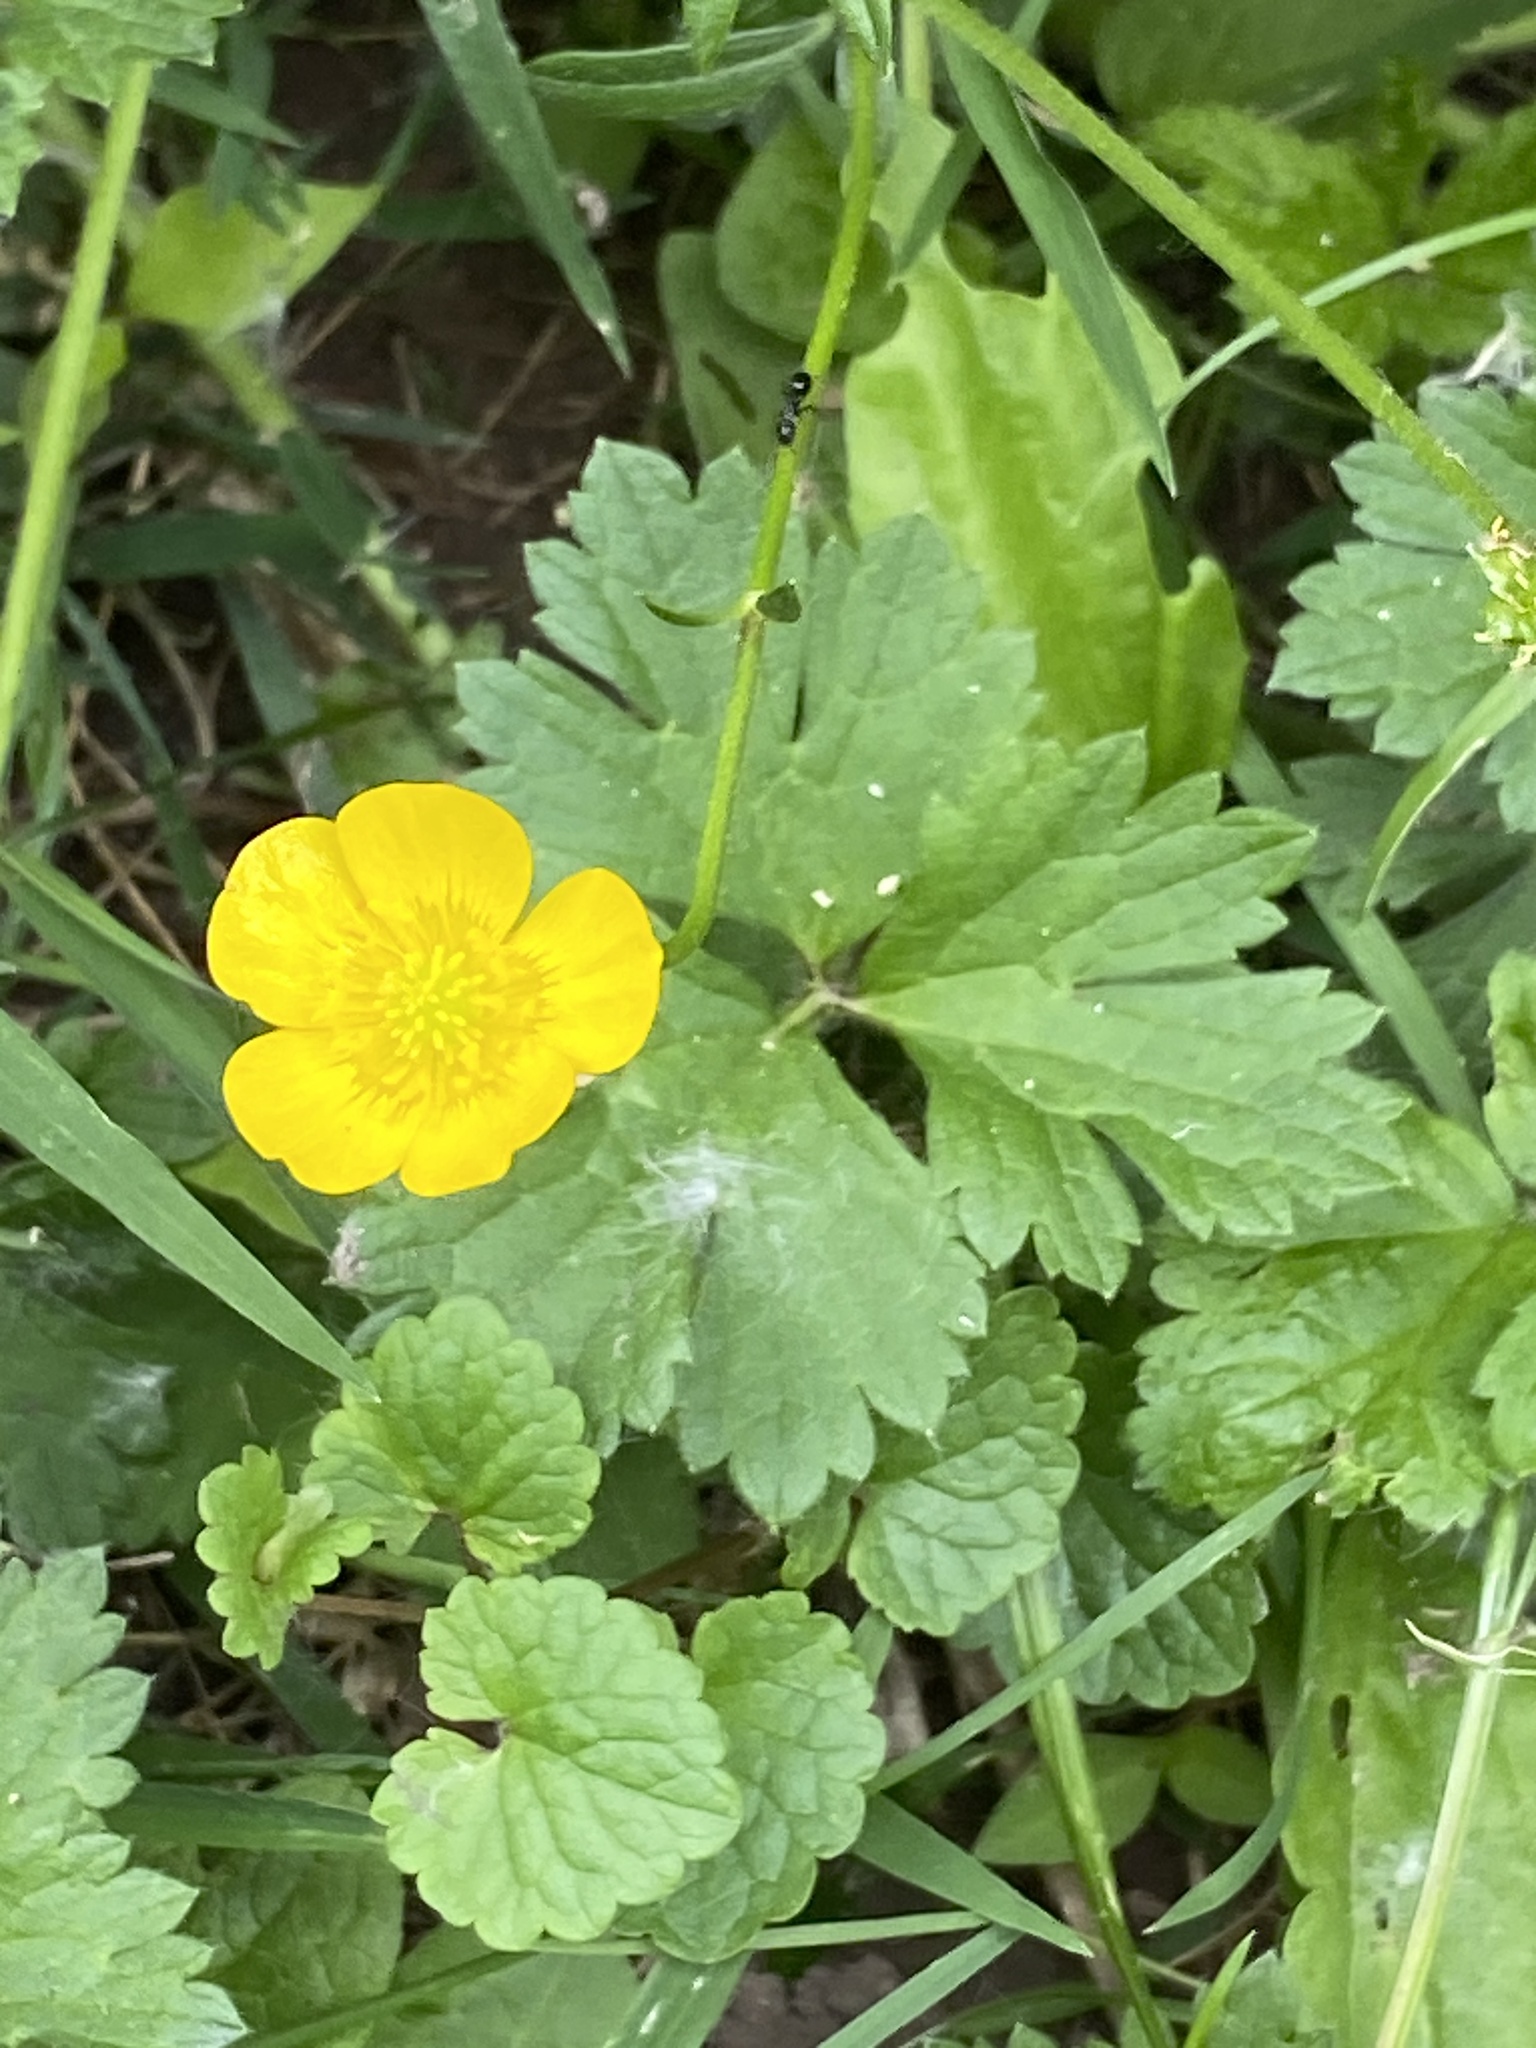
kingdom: Plantae
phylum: Tracheophyta
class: Magnoliopsida
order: Ranunculales
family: Ranunculaceae
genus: Ranunculus
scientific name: Ranunculus repens
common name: Creeping buttercup
